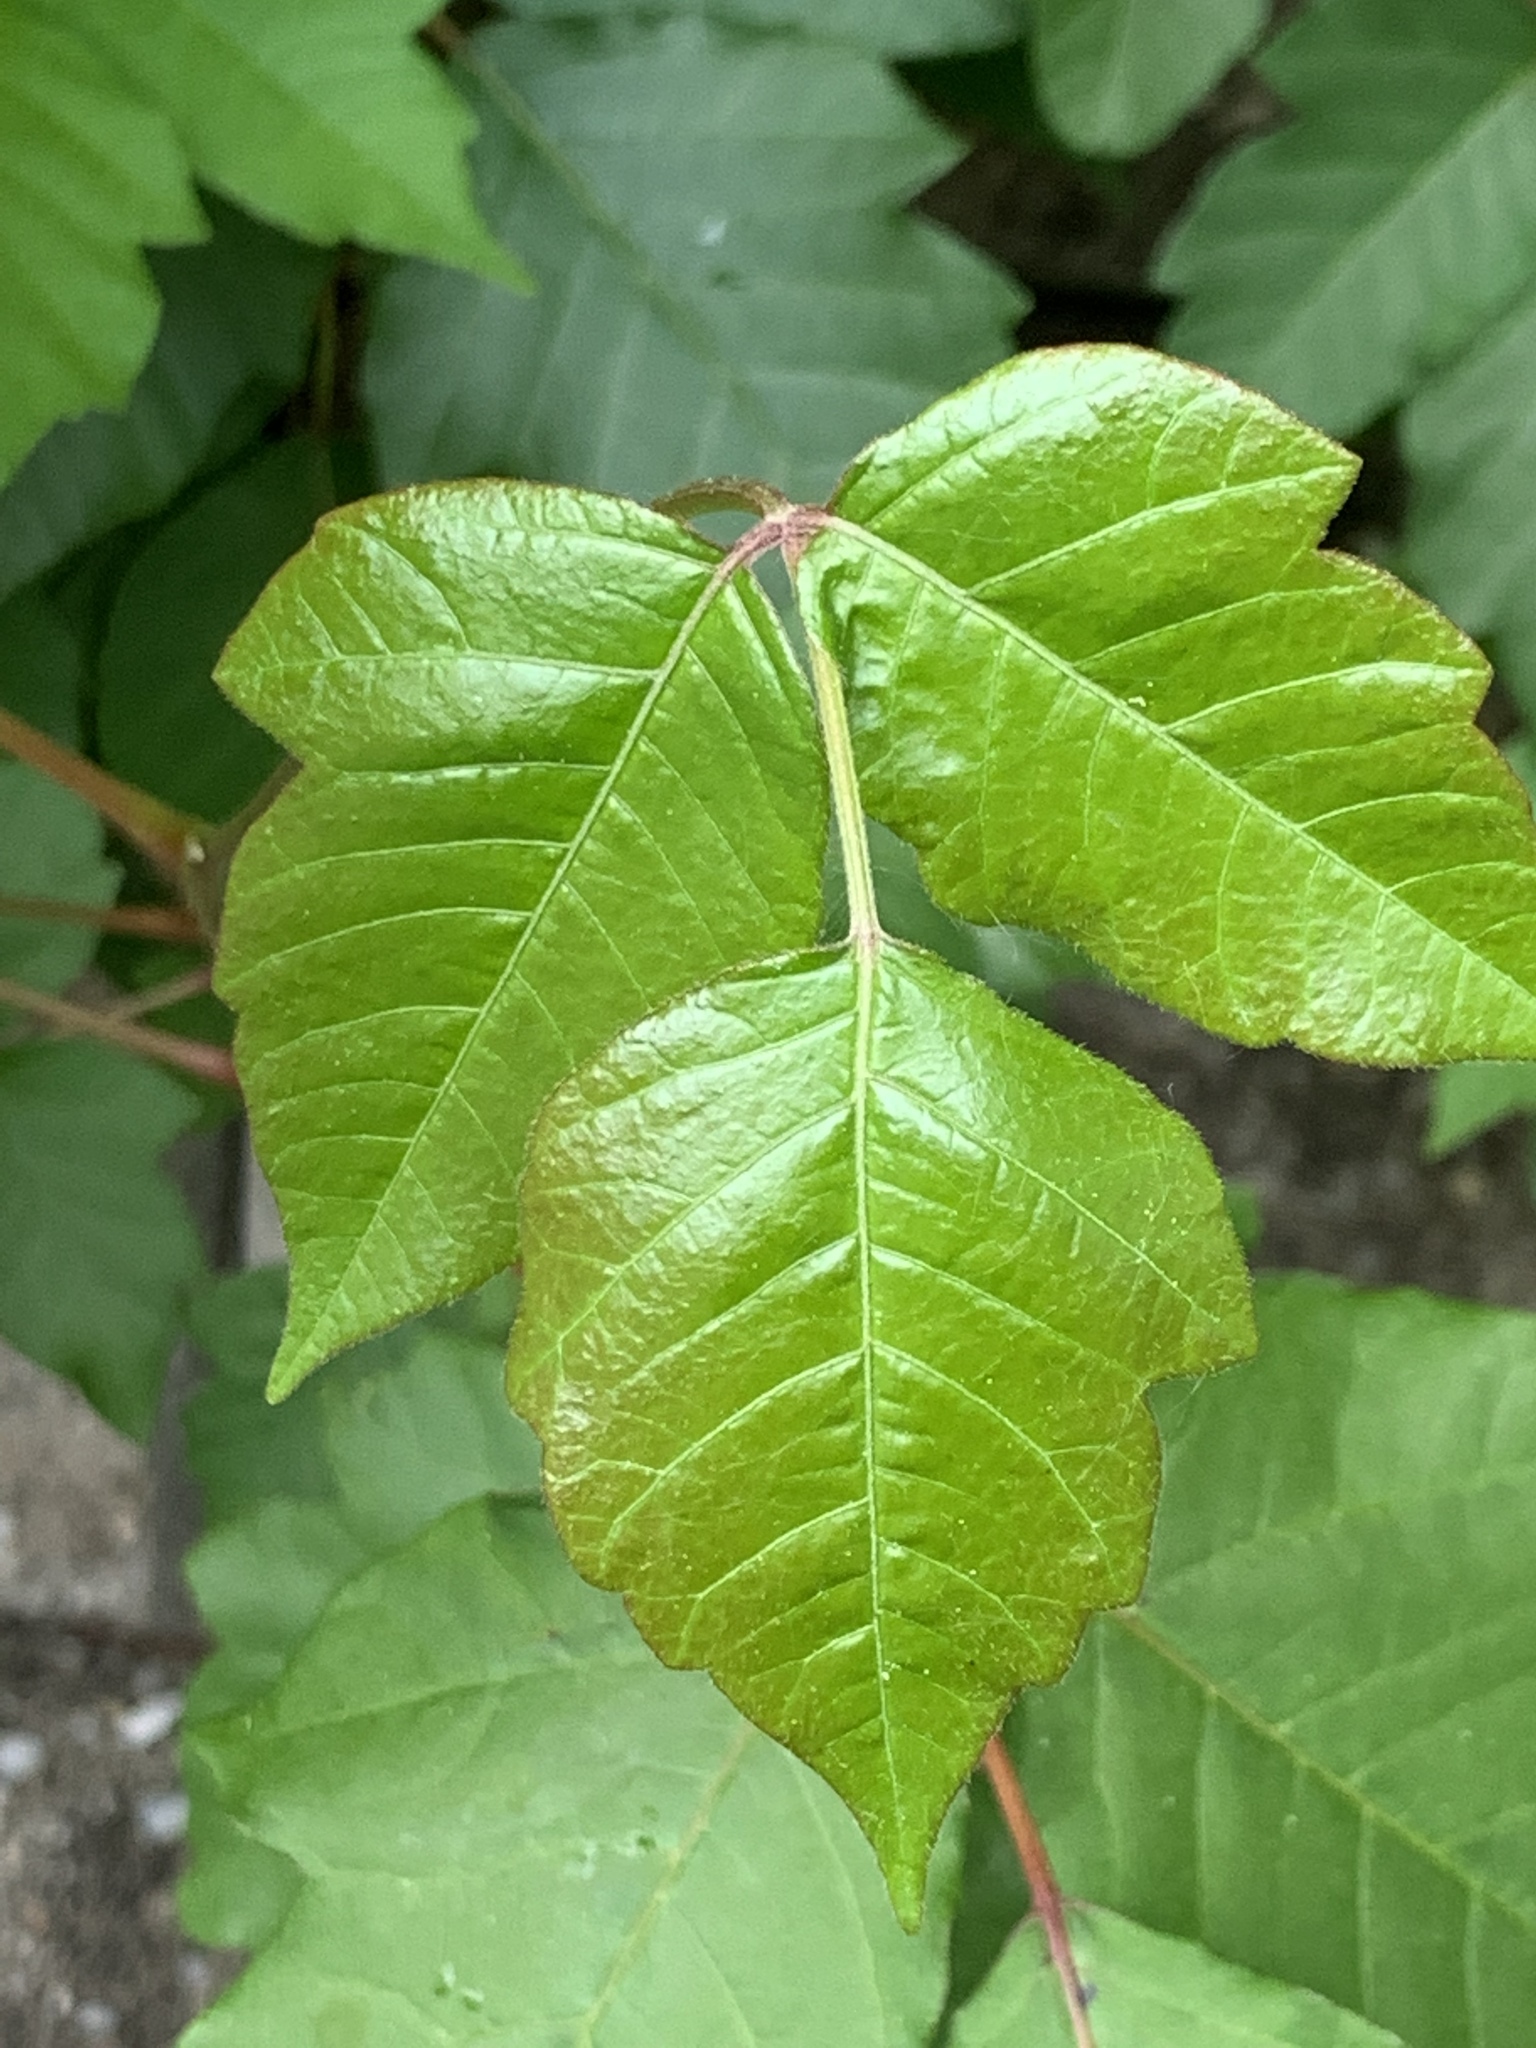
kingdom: Plantae
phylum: Tracheophyta
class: Magnoliopsida
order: Sapindales
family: Anacardiaceae
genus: Toxicodendron
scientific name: Toxicodendron radicans
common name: Poison ivy
